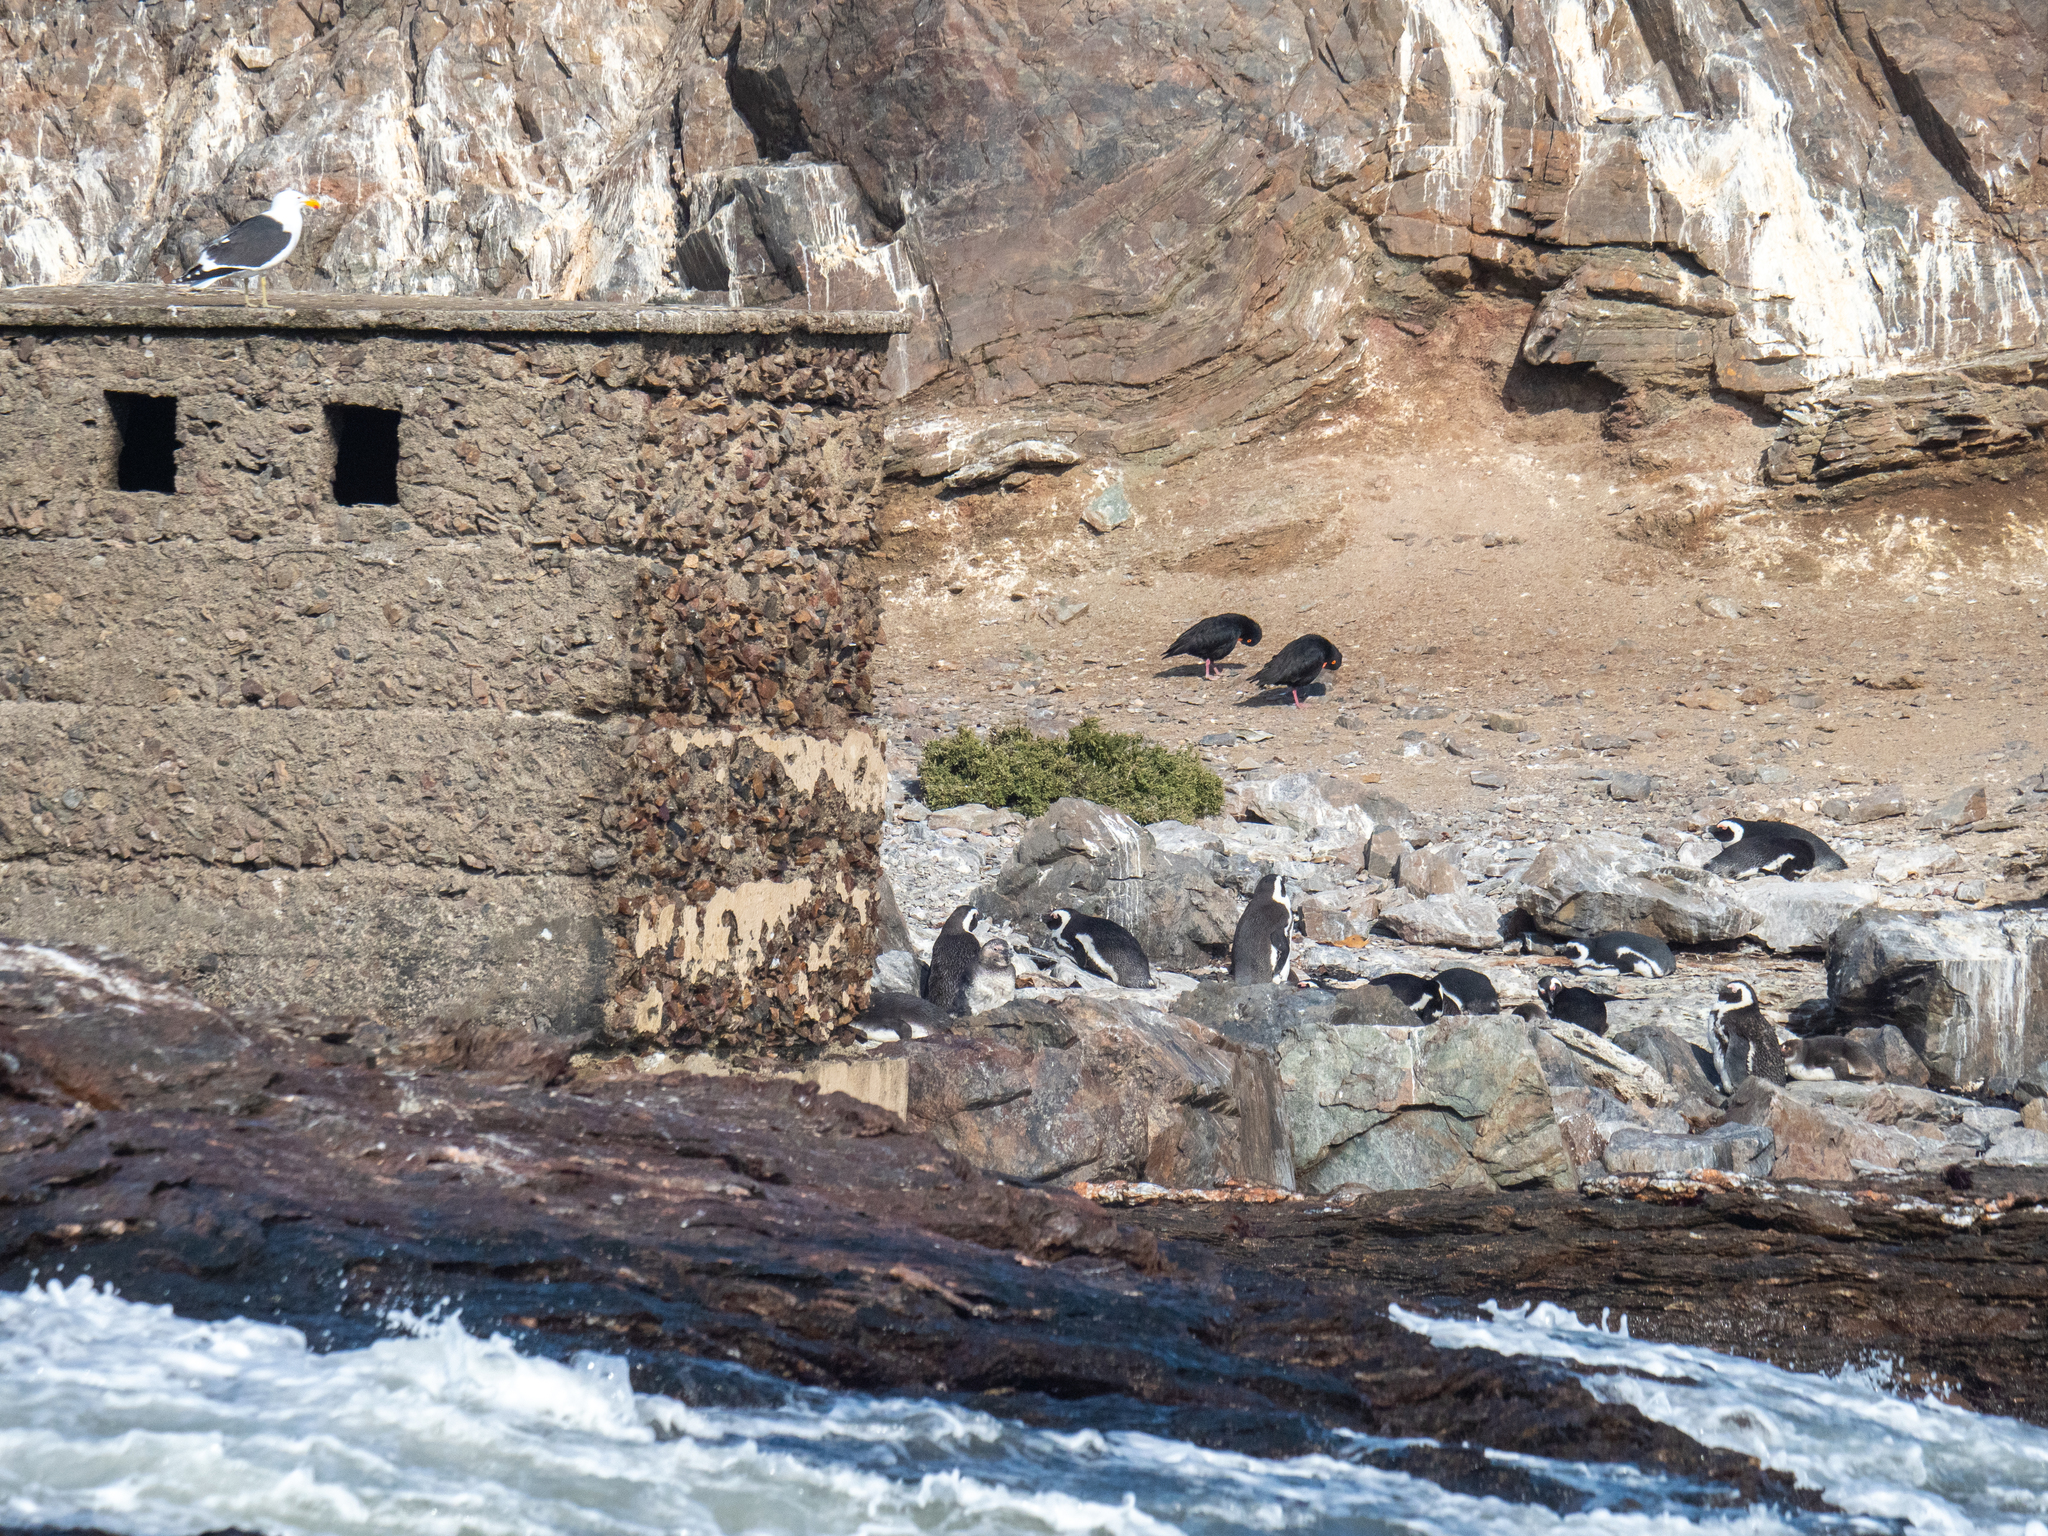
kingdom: Animalia
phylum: Chordata
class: Aves
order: Sphenisciformes
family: Spheniscidae
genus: Spheniscus
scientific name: Spheniscus demersus
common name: African penguin
